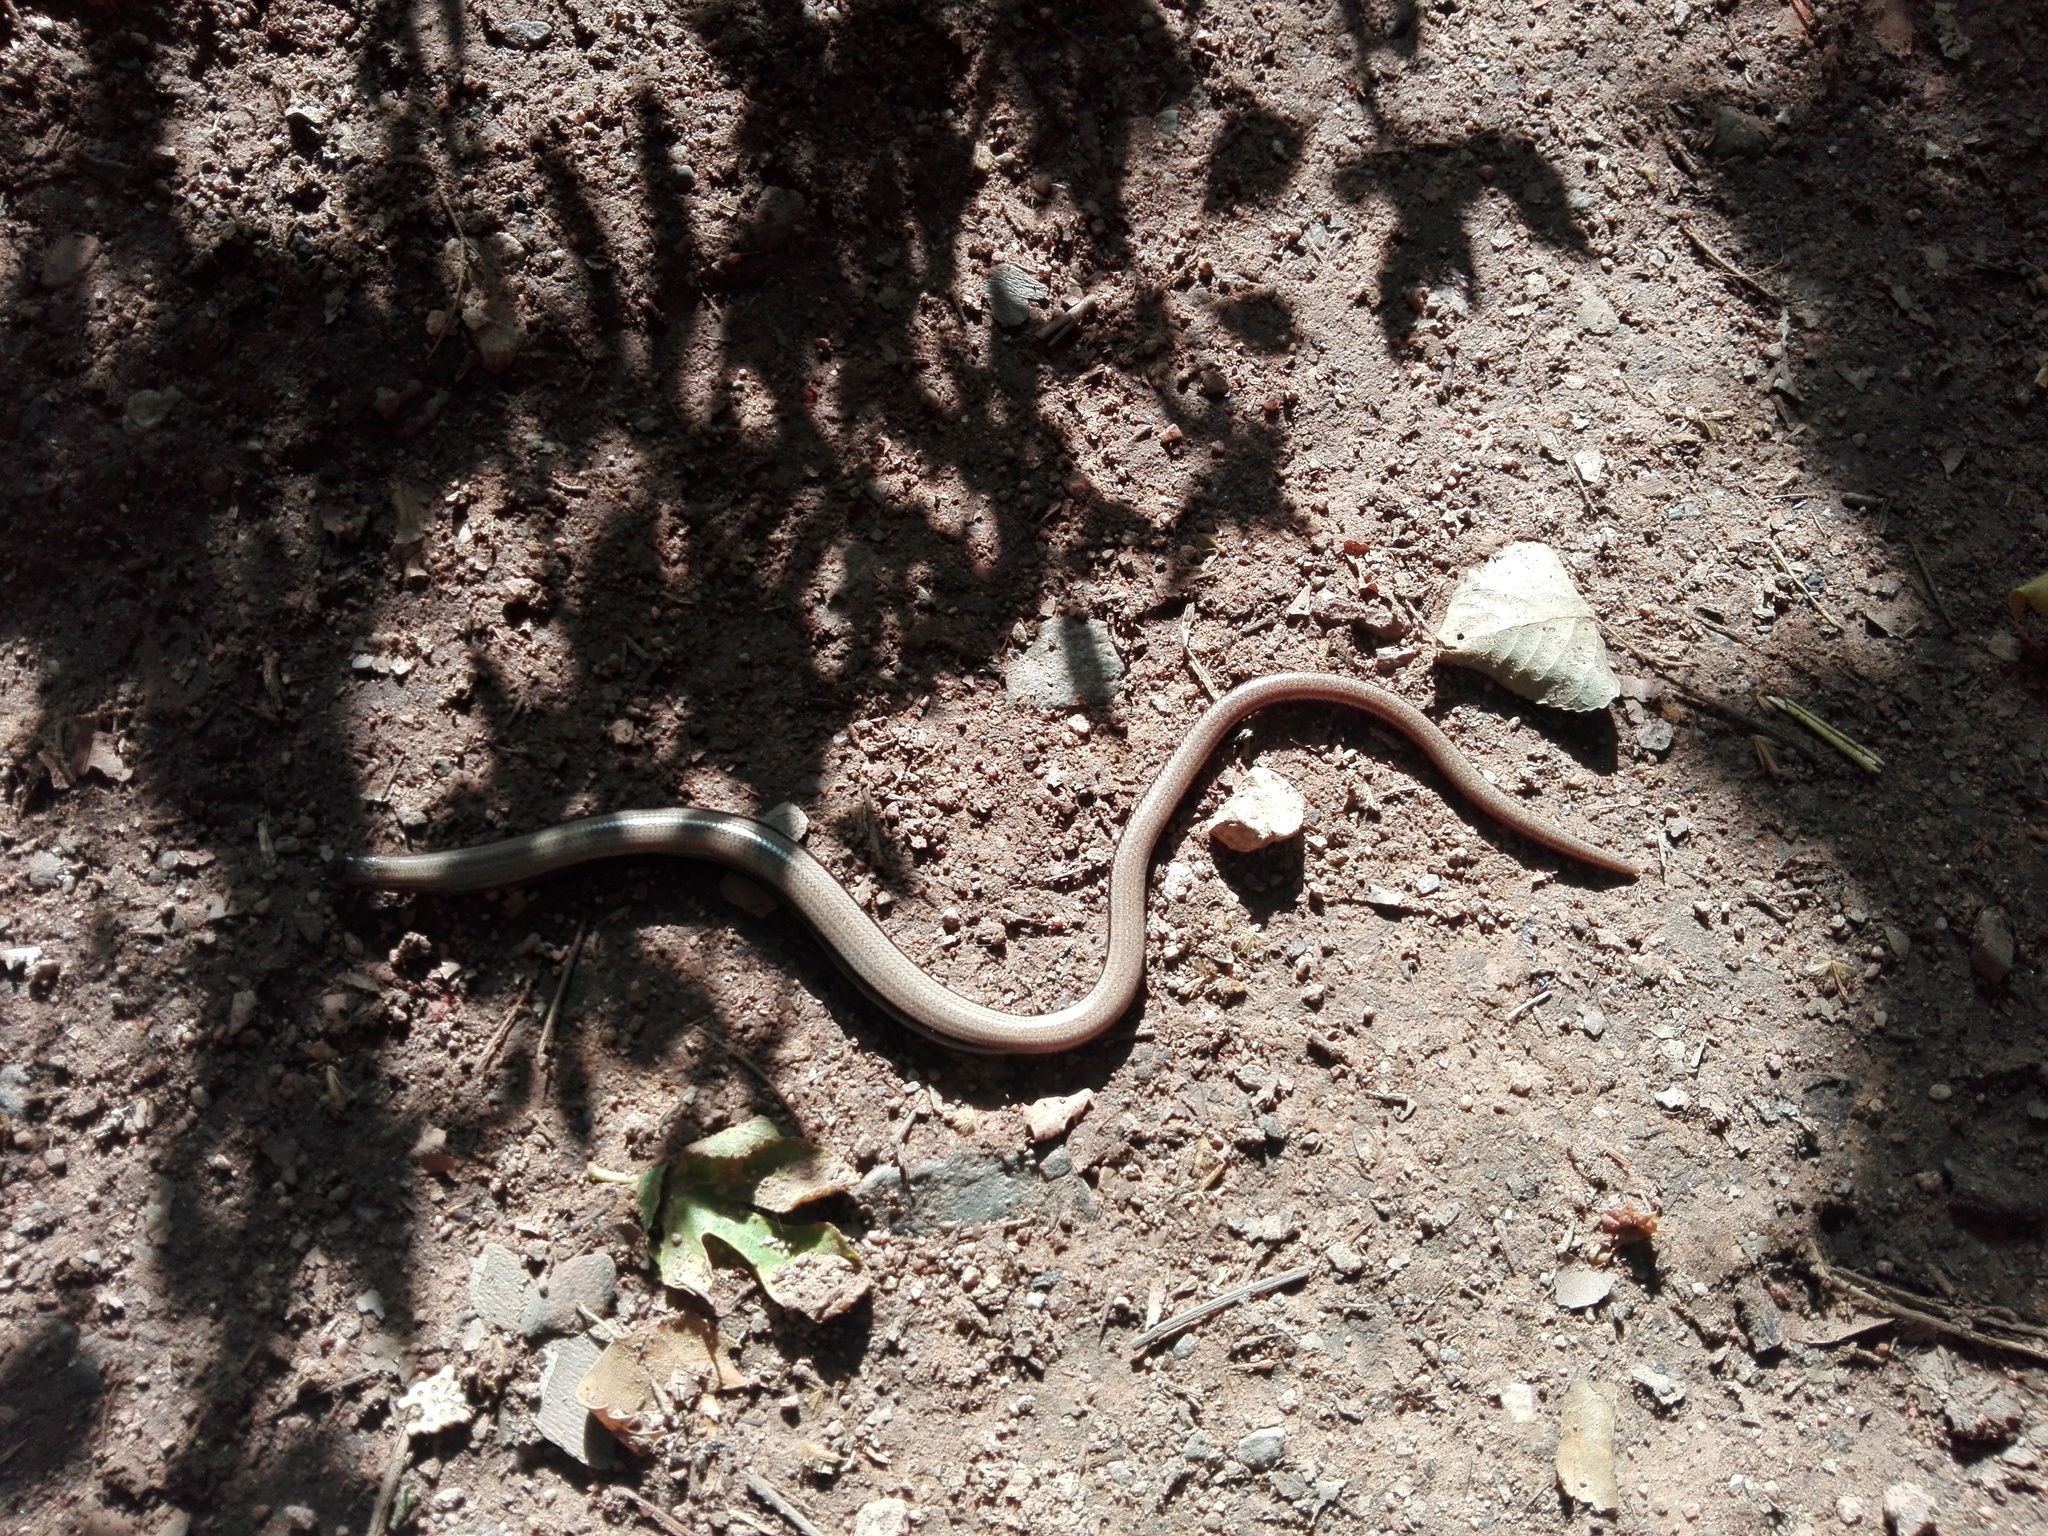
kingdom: Animalia
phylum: Chordata
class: Squamata
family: Anguidae
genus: Anguis
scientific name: Anguis fragilis
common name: Slow worm
